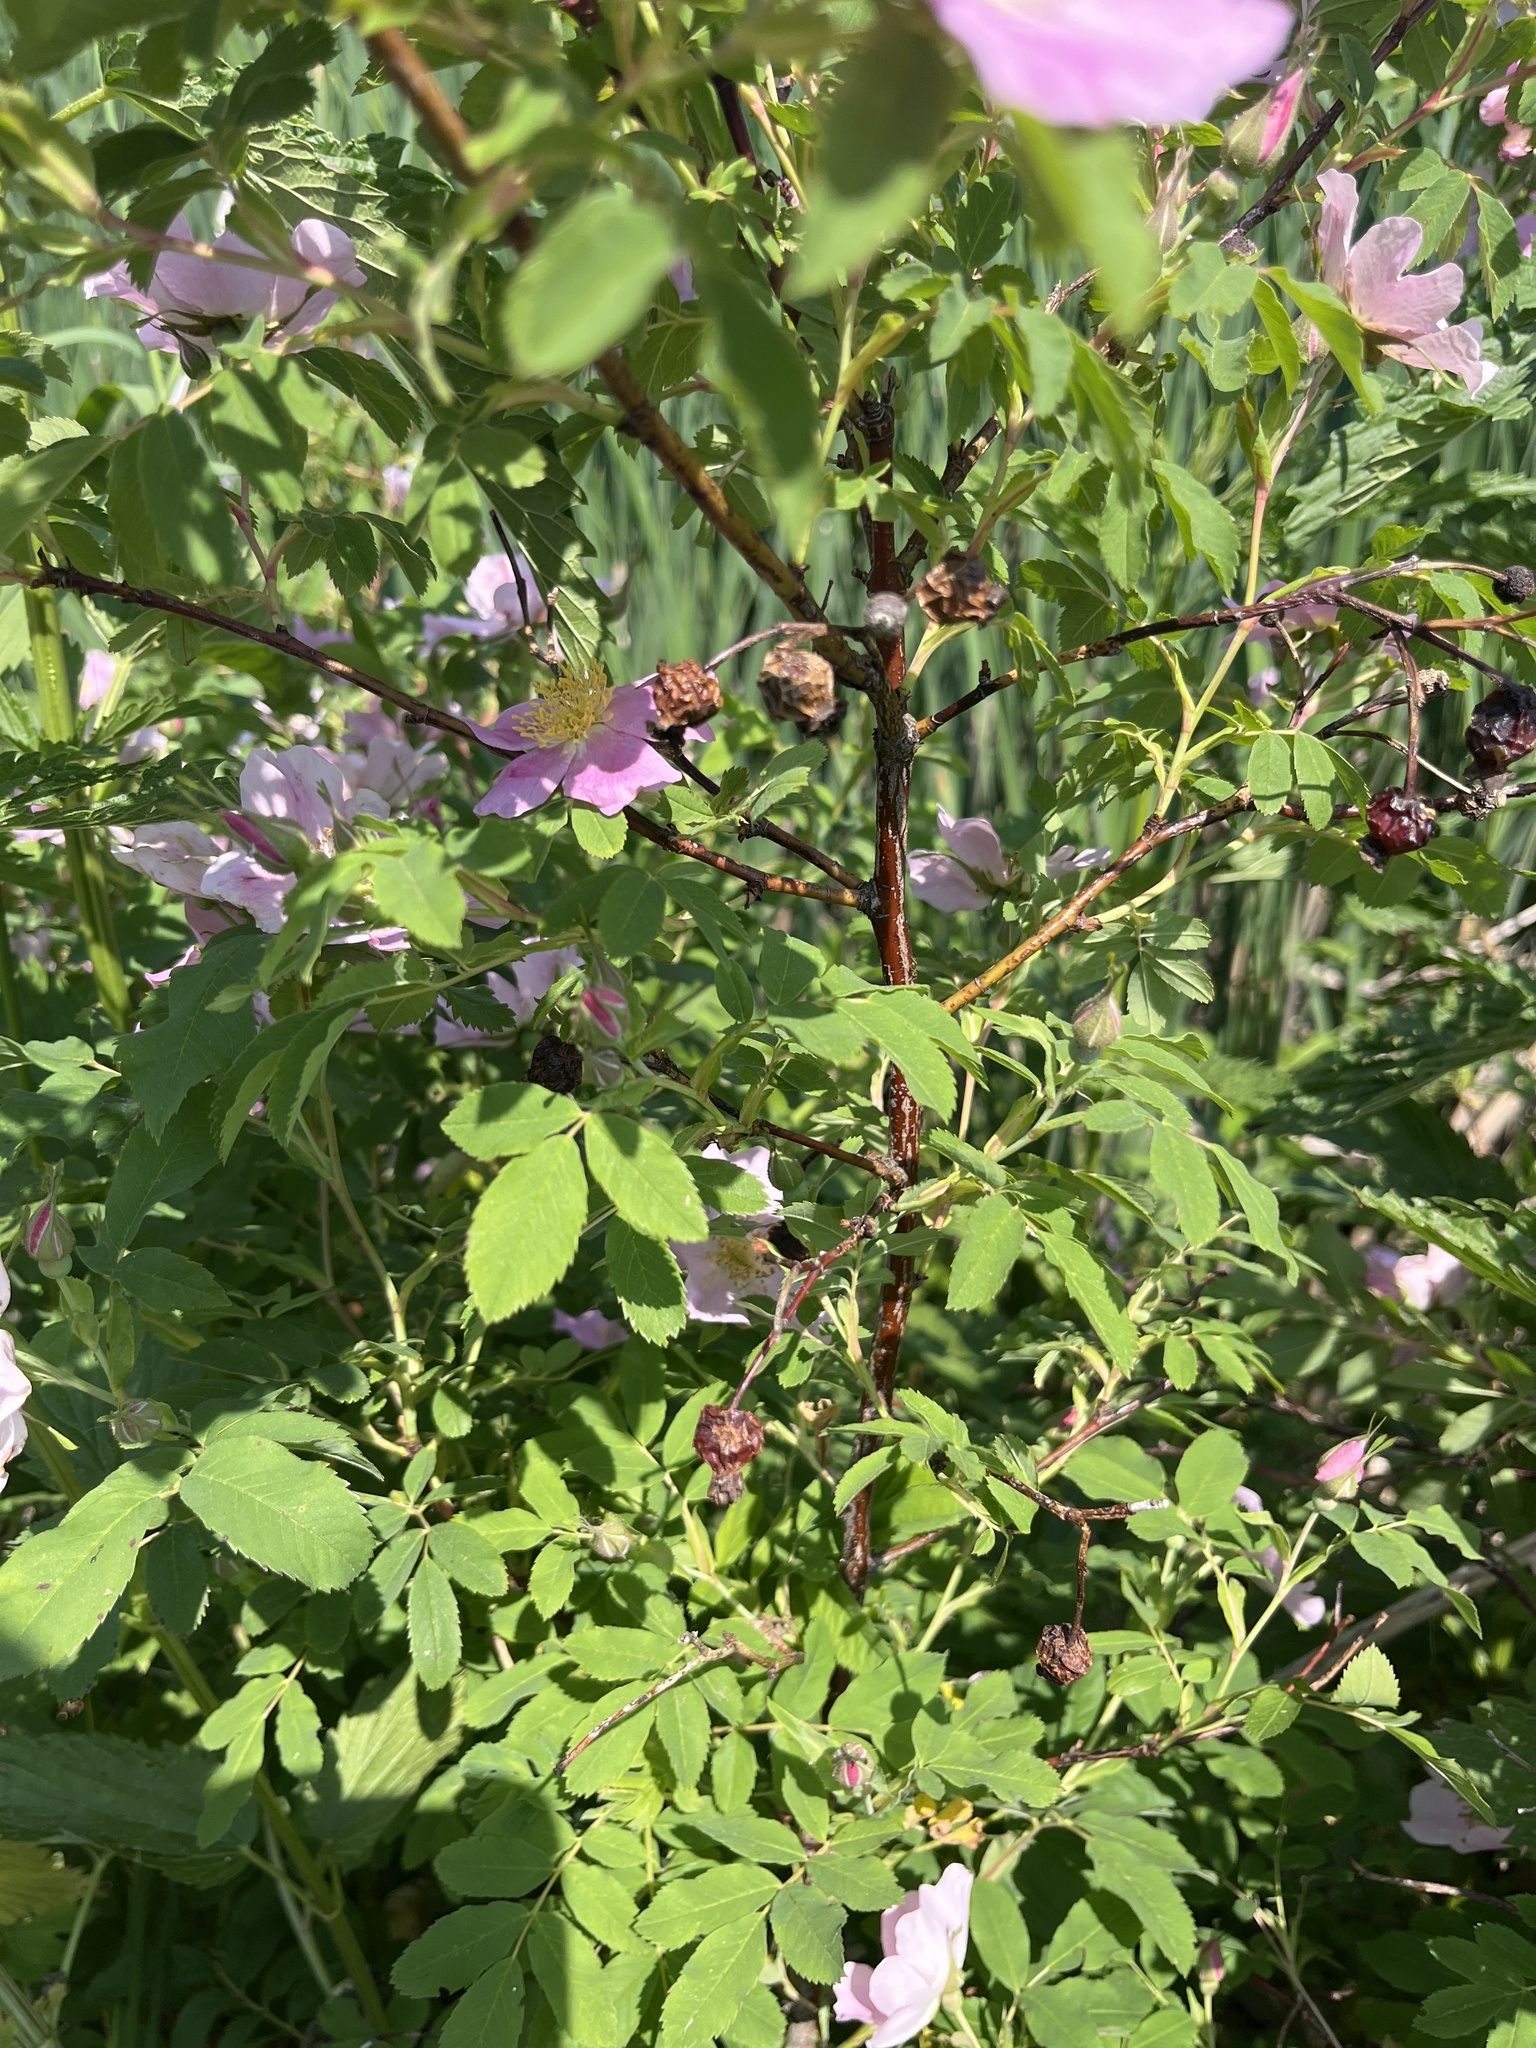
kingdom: Plantae
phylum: Tracheophyta
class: Magnoliopsida
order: Rosales
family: Rosaceae
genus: Rosa
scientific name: Rosa blanda
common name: Smooth rose
